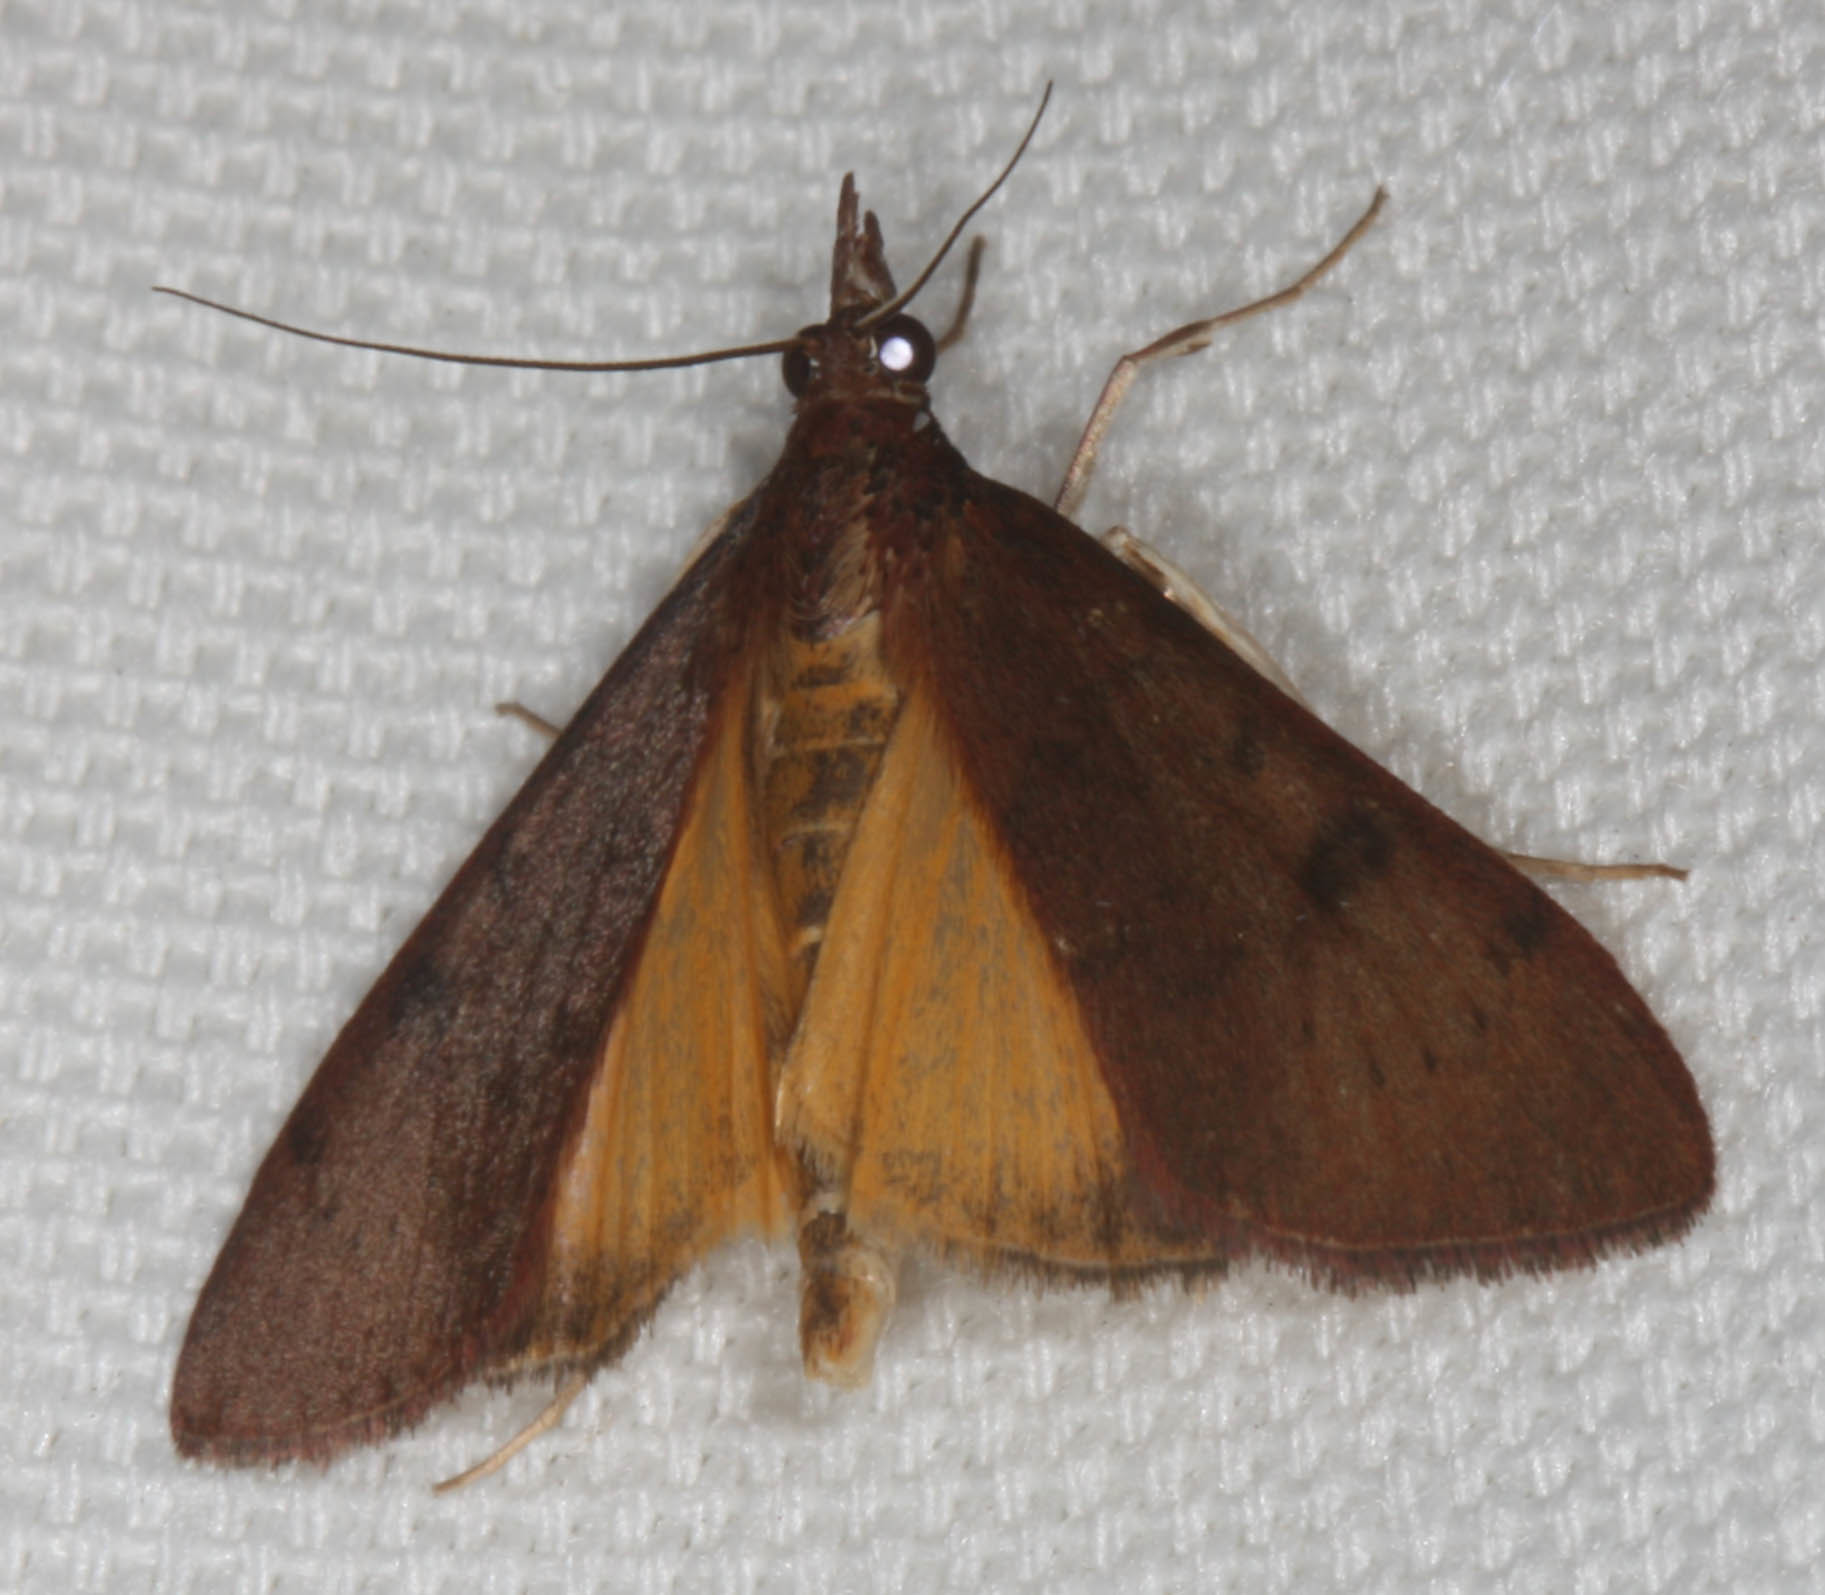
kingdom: Animalia
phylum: Arthropoda
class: Insecta
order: Lepidoptera
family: Crambidae
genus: Uresiphita
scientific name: Uresiphita reversalis
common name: Genista broom moth
